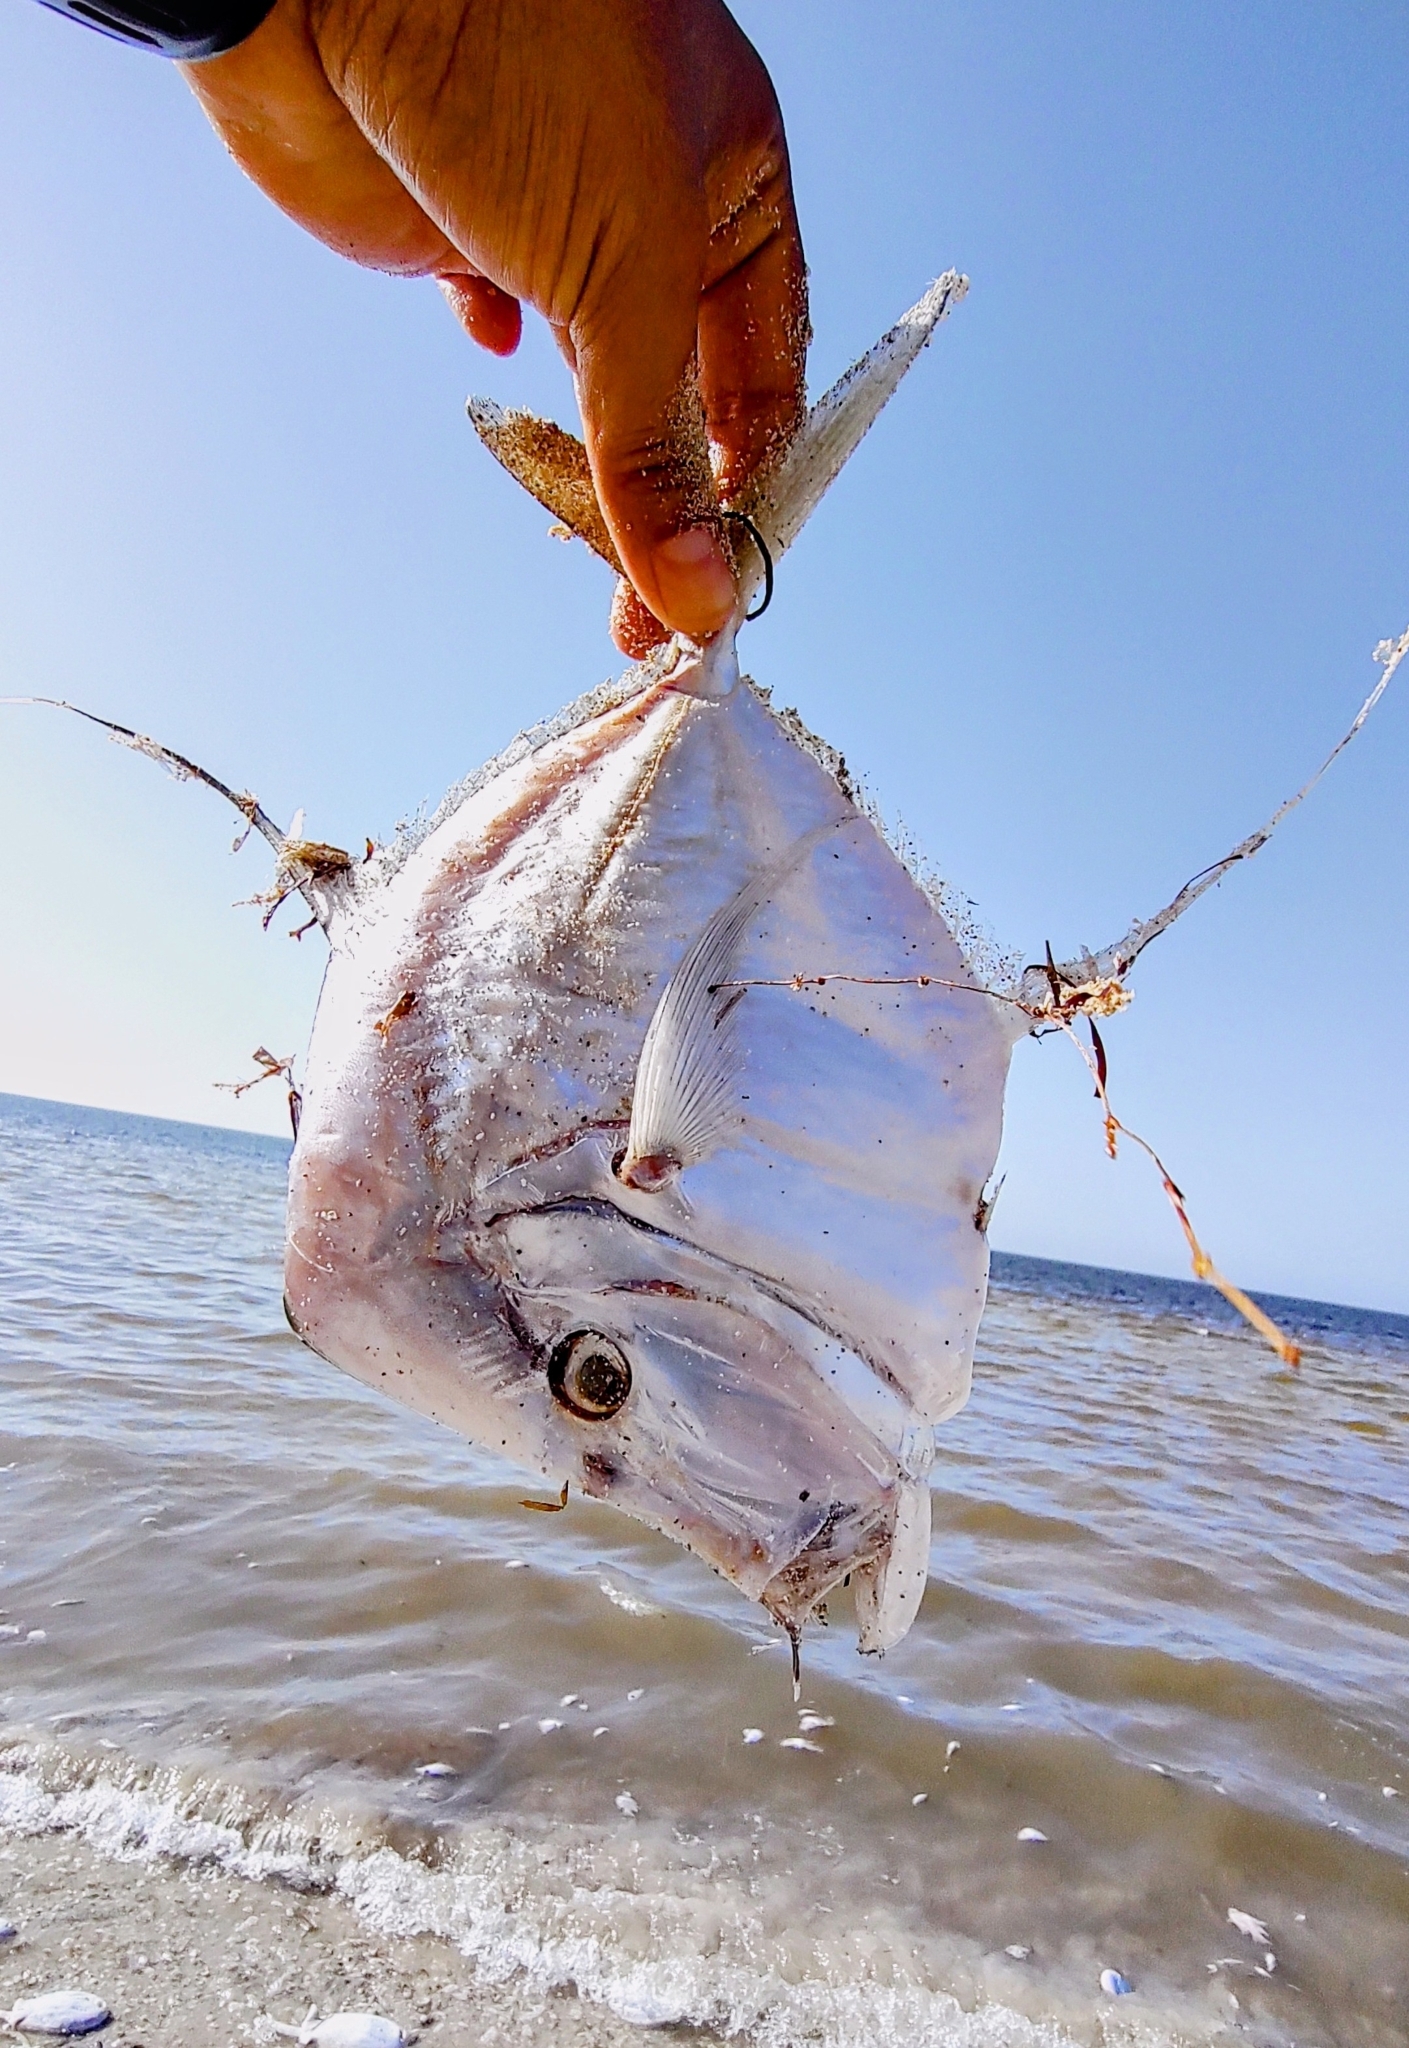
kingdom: Animalia
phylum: Chordata
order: Perciformes
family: Carangidae
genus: Selene
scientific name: Selene vomer
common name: Lookdown
